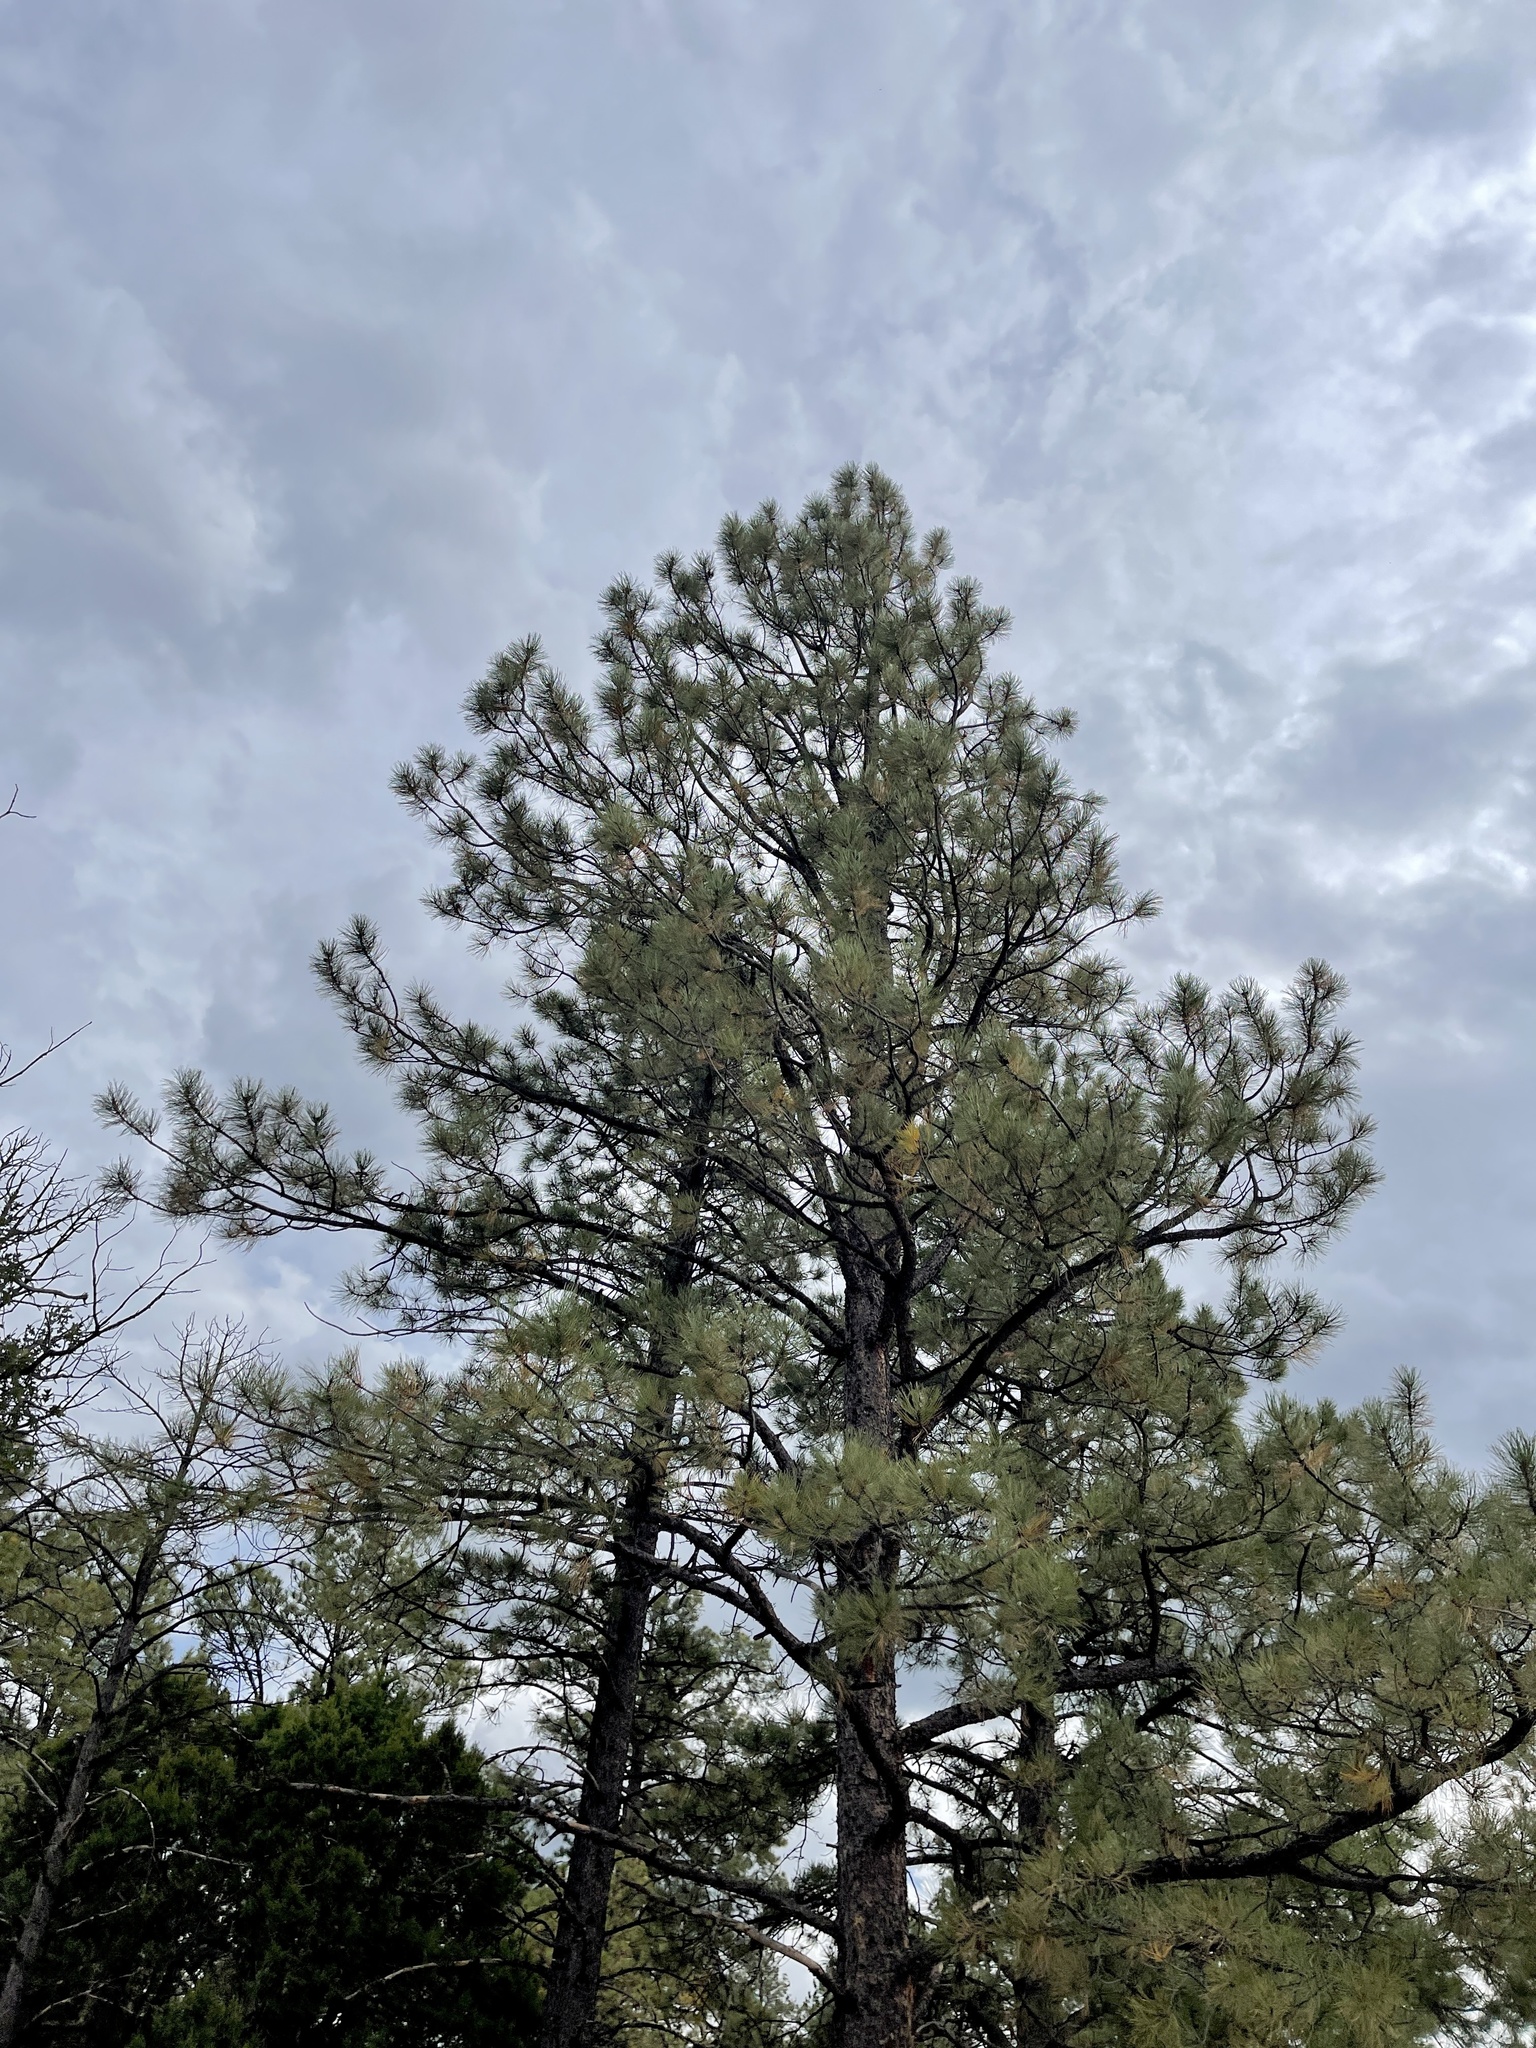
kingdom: Plantae
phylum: Tracheophyta
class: Pinopsida
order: Pinales
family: Pinaceae
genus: Pinus
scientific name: Pinus ponderosa
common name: Western yellow-pine
